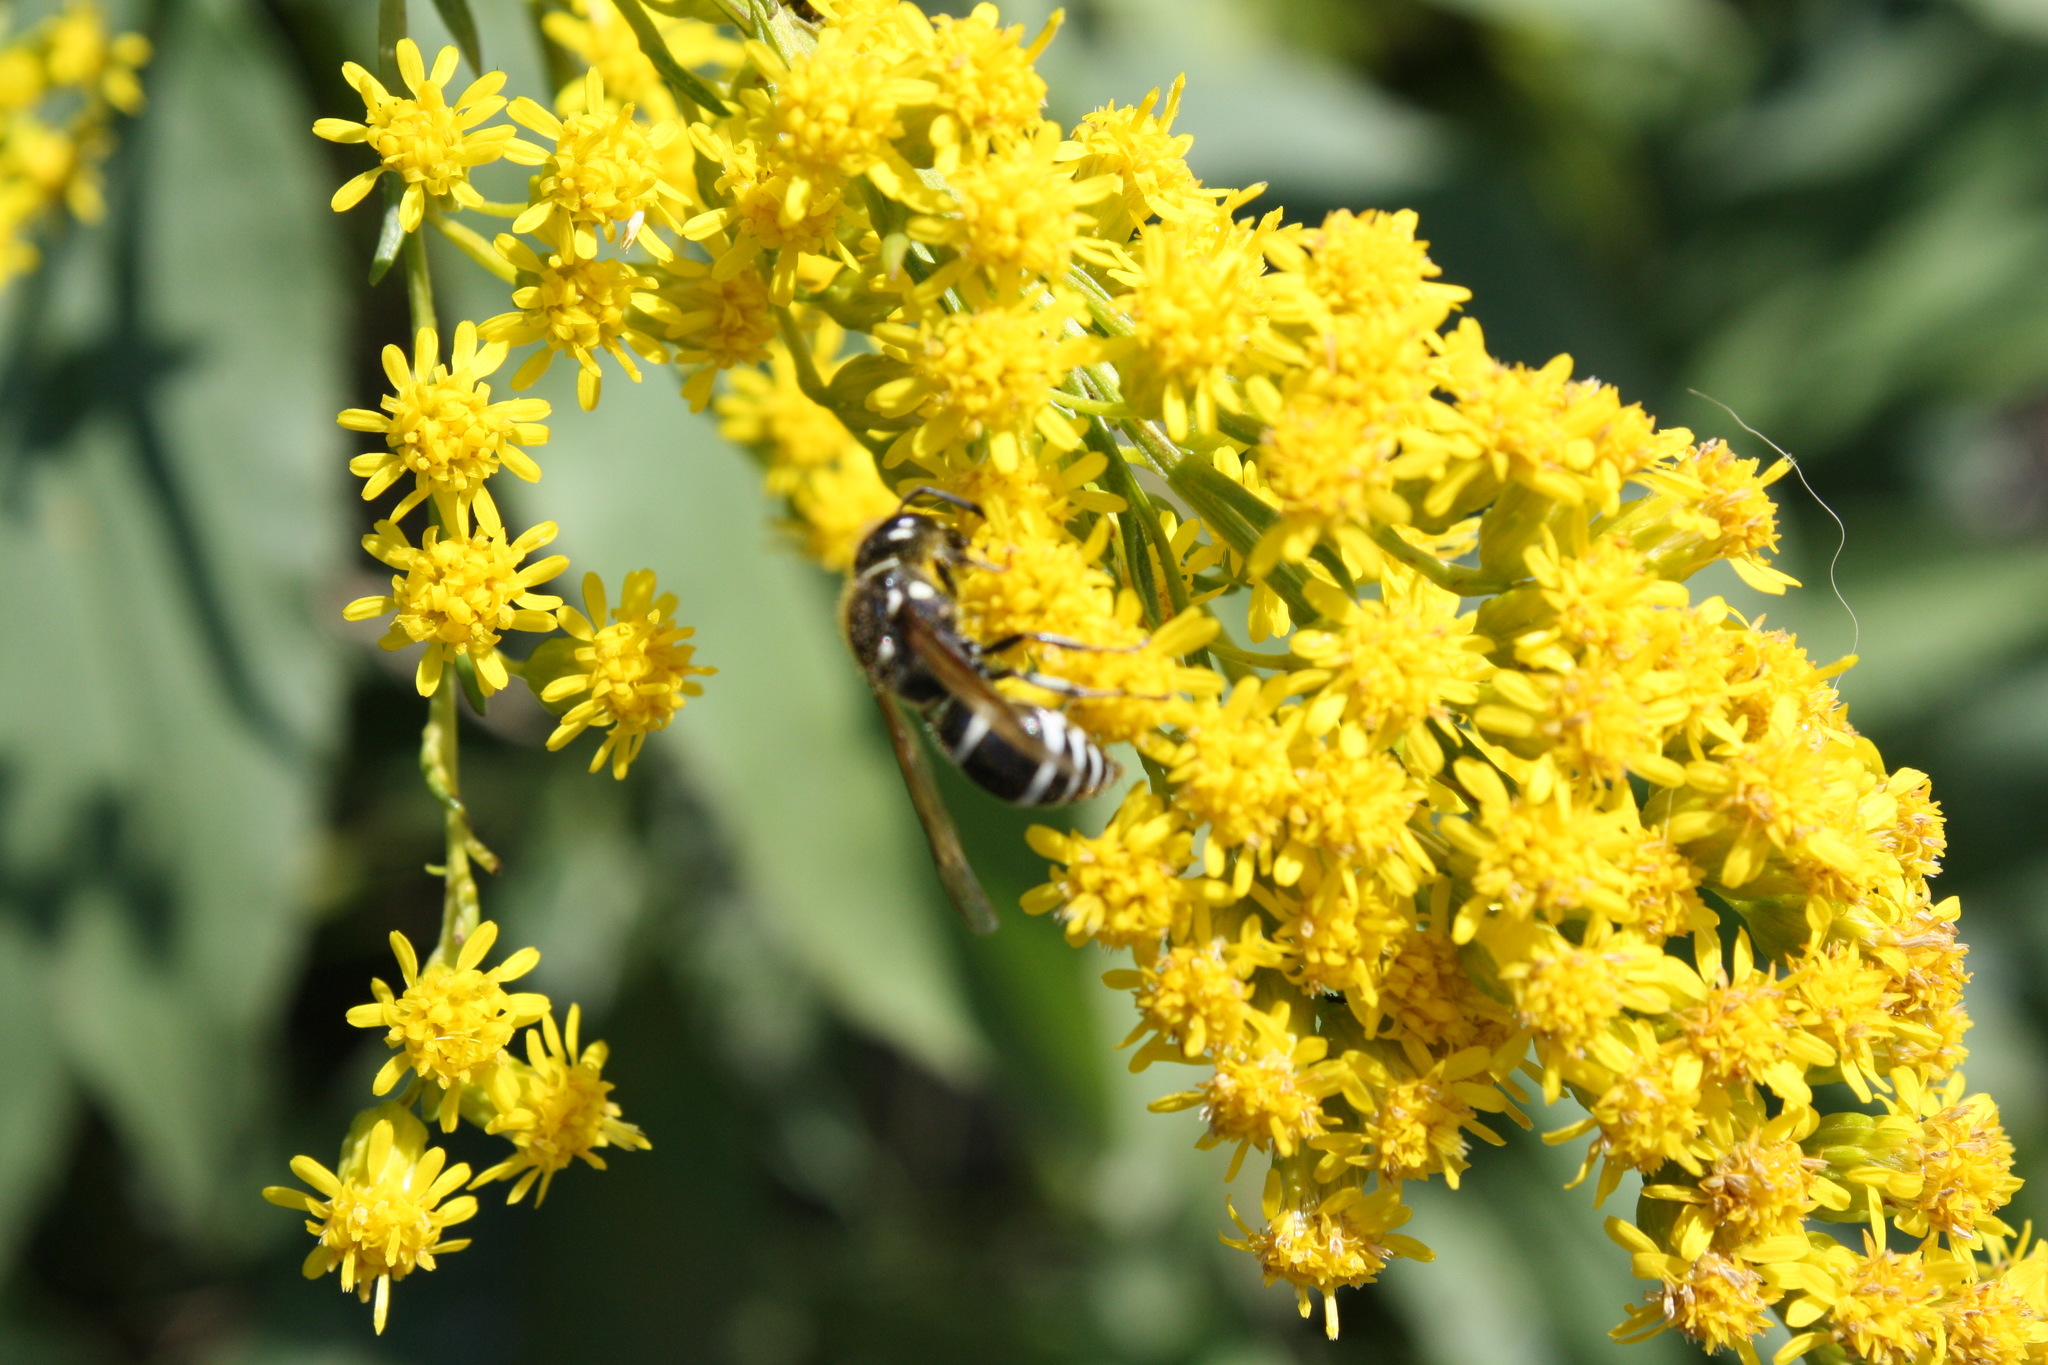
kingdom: Animalia
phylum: Arthropoda
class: Insecta
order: Hymenoptera
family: Vespidae
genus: Ancistrocerus
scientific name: Ancistrocerus
